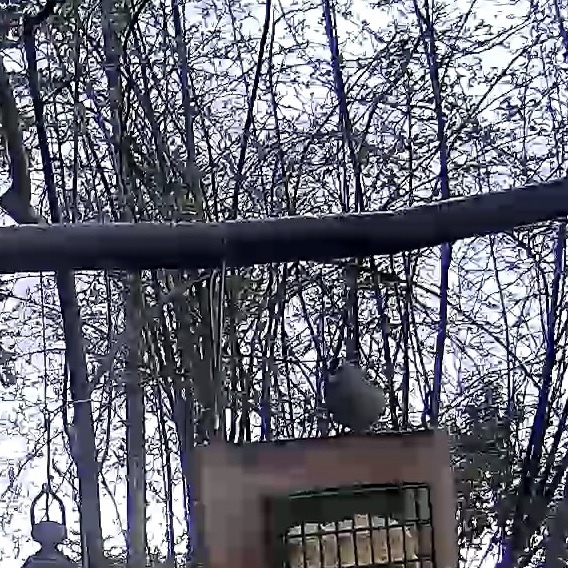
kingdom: Animalia
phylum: Chordata
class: Aves
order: Passeriformes
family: Passerellidae
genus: Zonotrichia
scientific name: Zonotrichia leucophrys
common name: White-crowned sparrow
